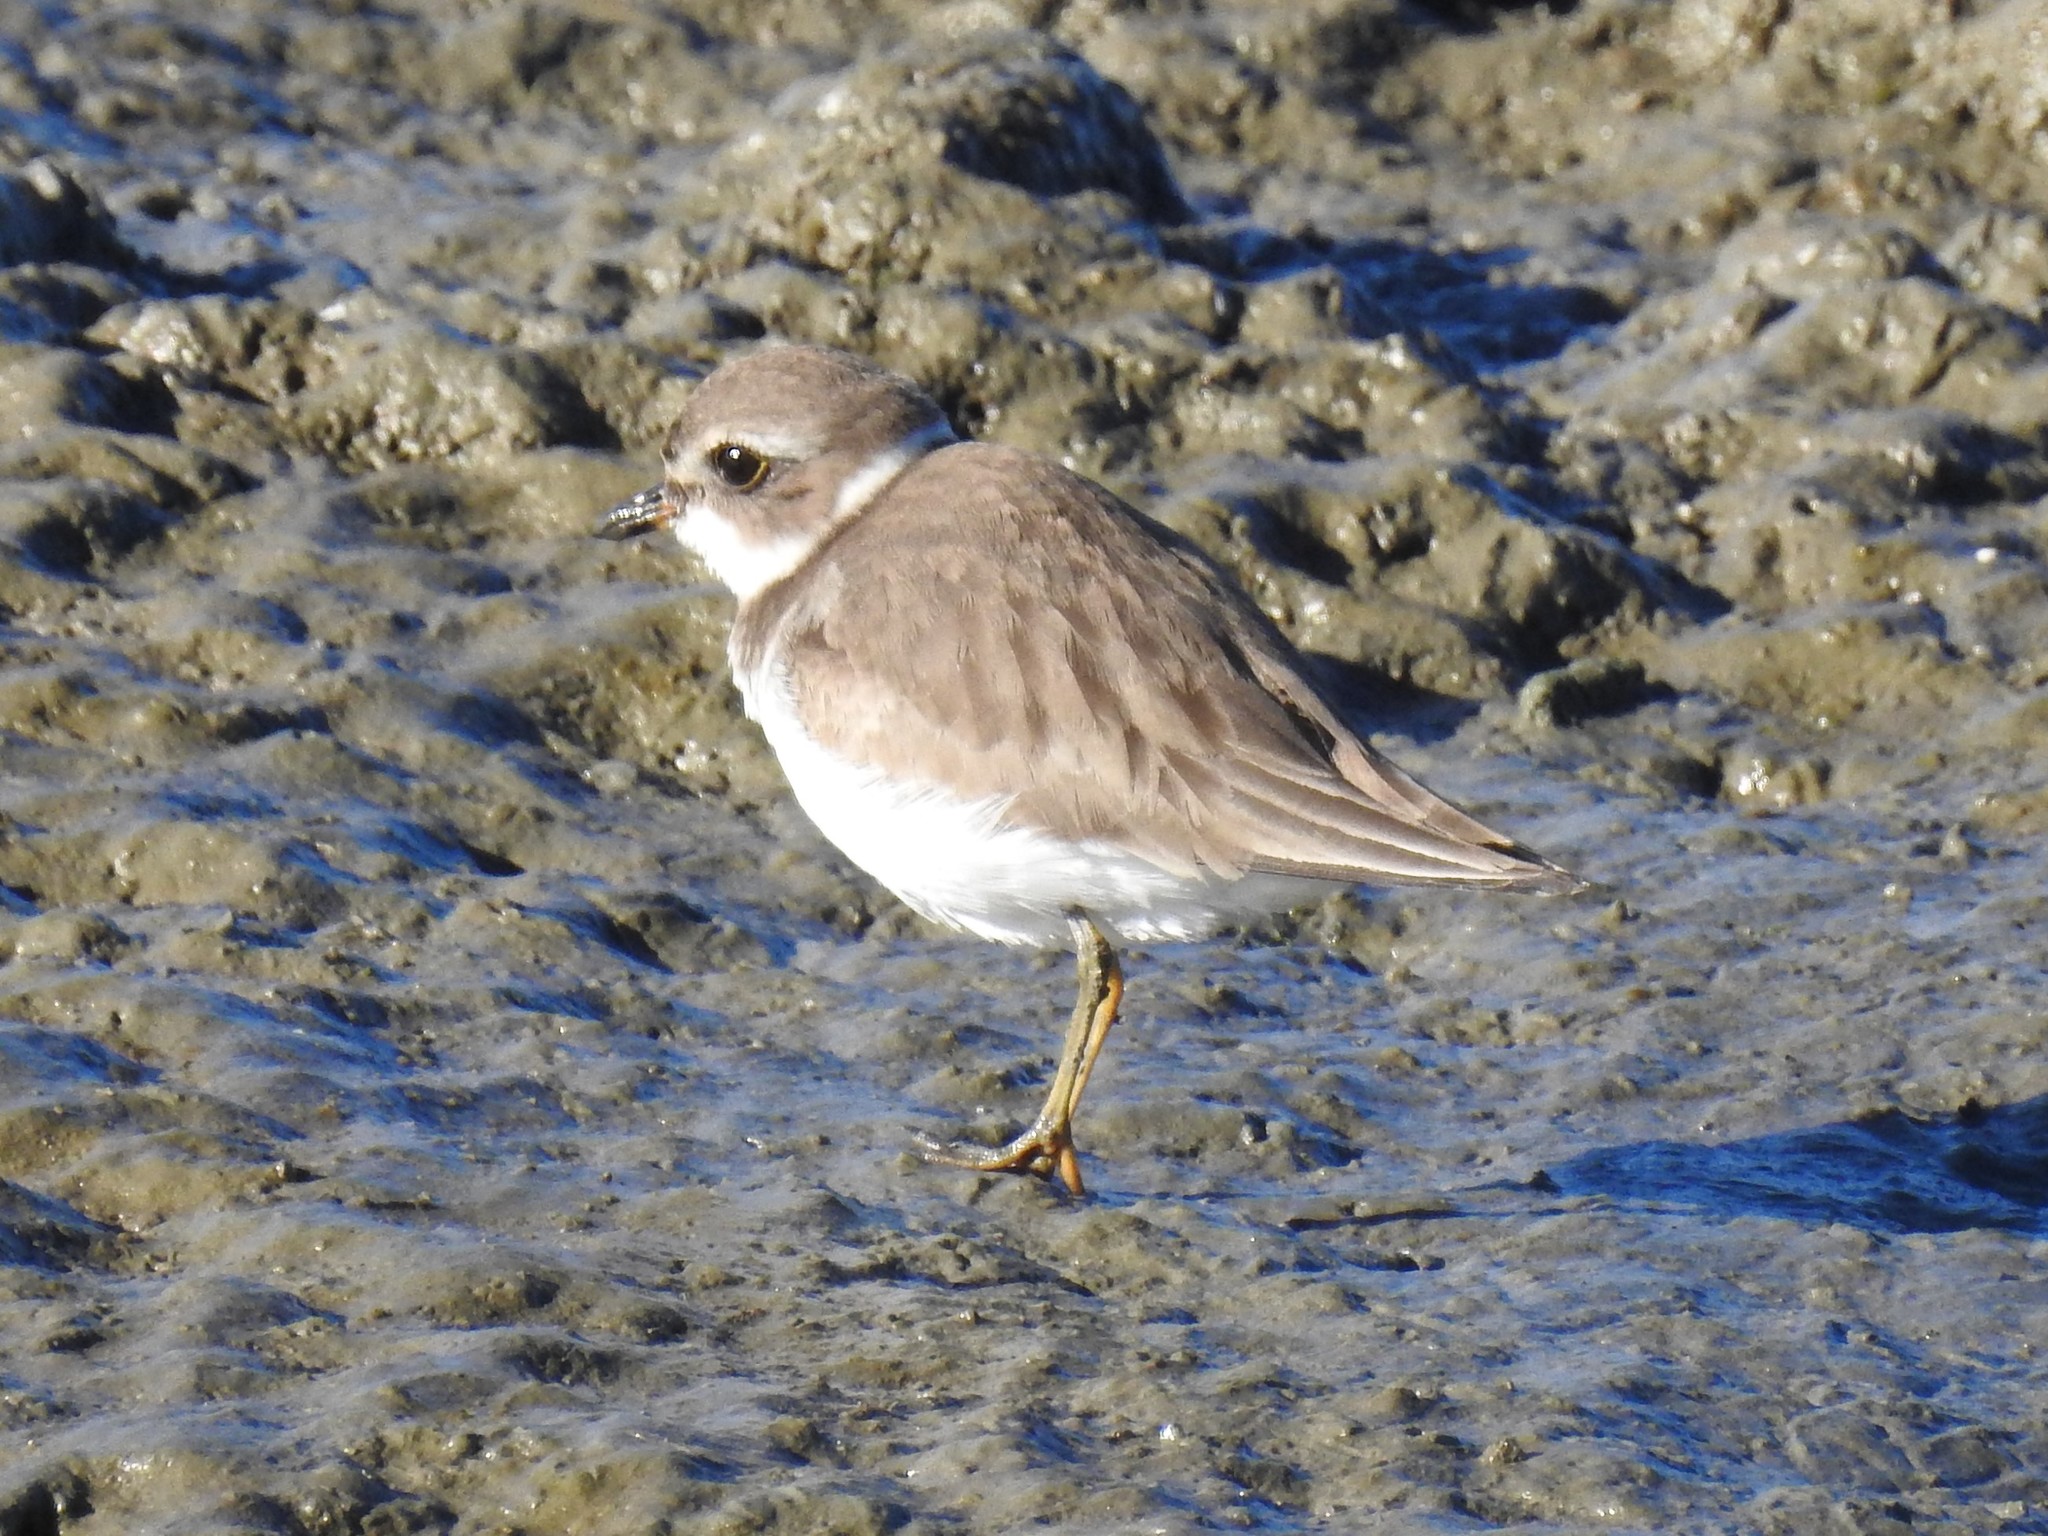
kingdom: Animalia
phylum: Chordata
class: Aves
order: Charadriiformes
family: Charadriidae
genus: Charadrius
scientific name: Charadrius semipalmatus
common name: Semipalmated plover
